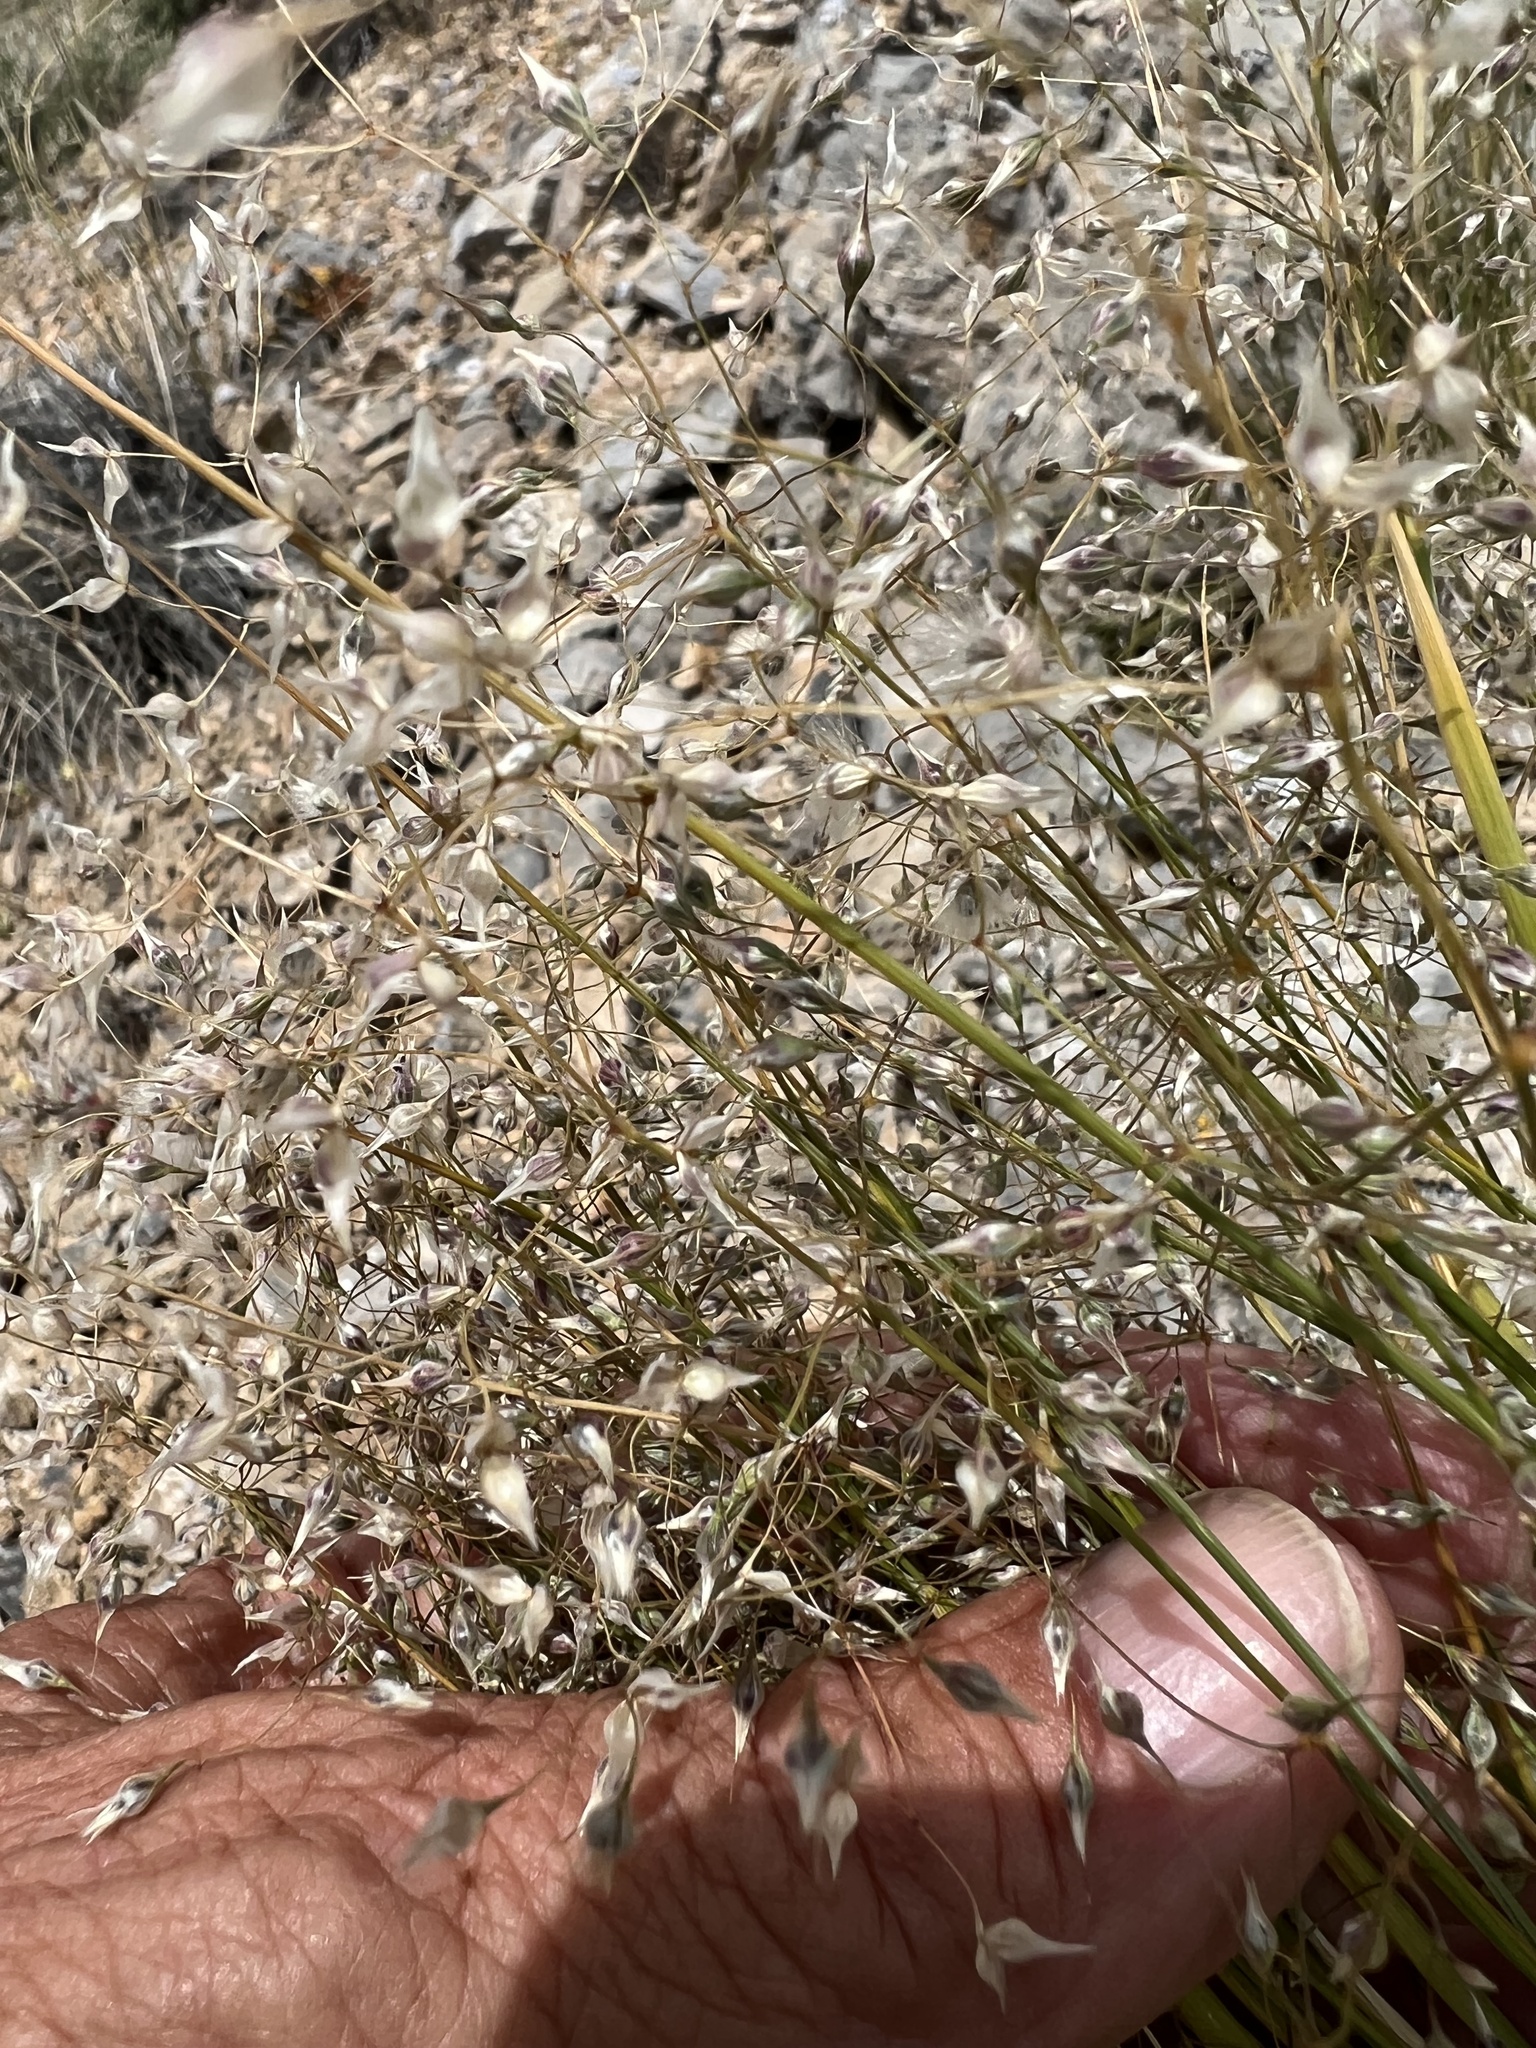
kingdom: Plantae
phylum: Tracheophyta
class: Liliopsida
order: Poales
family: Poaceae
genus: Eriocoma
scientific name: Eriocoma hymenoides
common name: Indian mountain ricegrass
